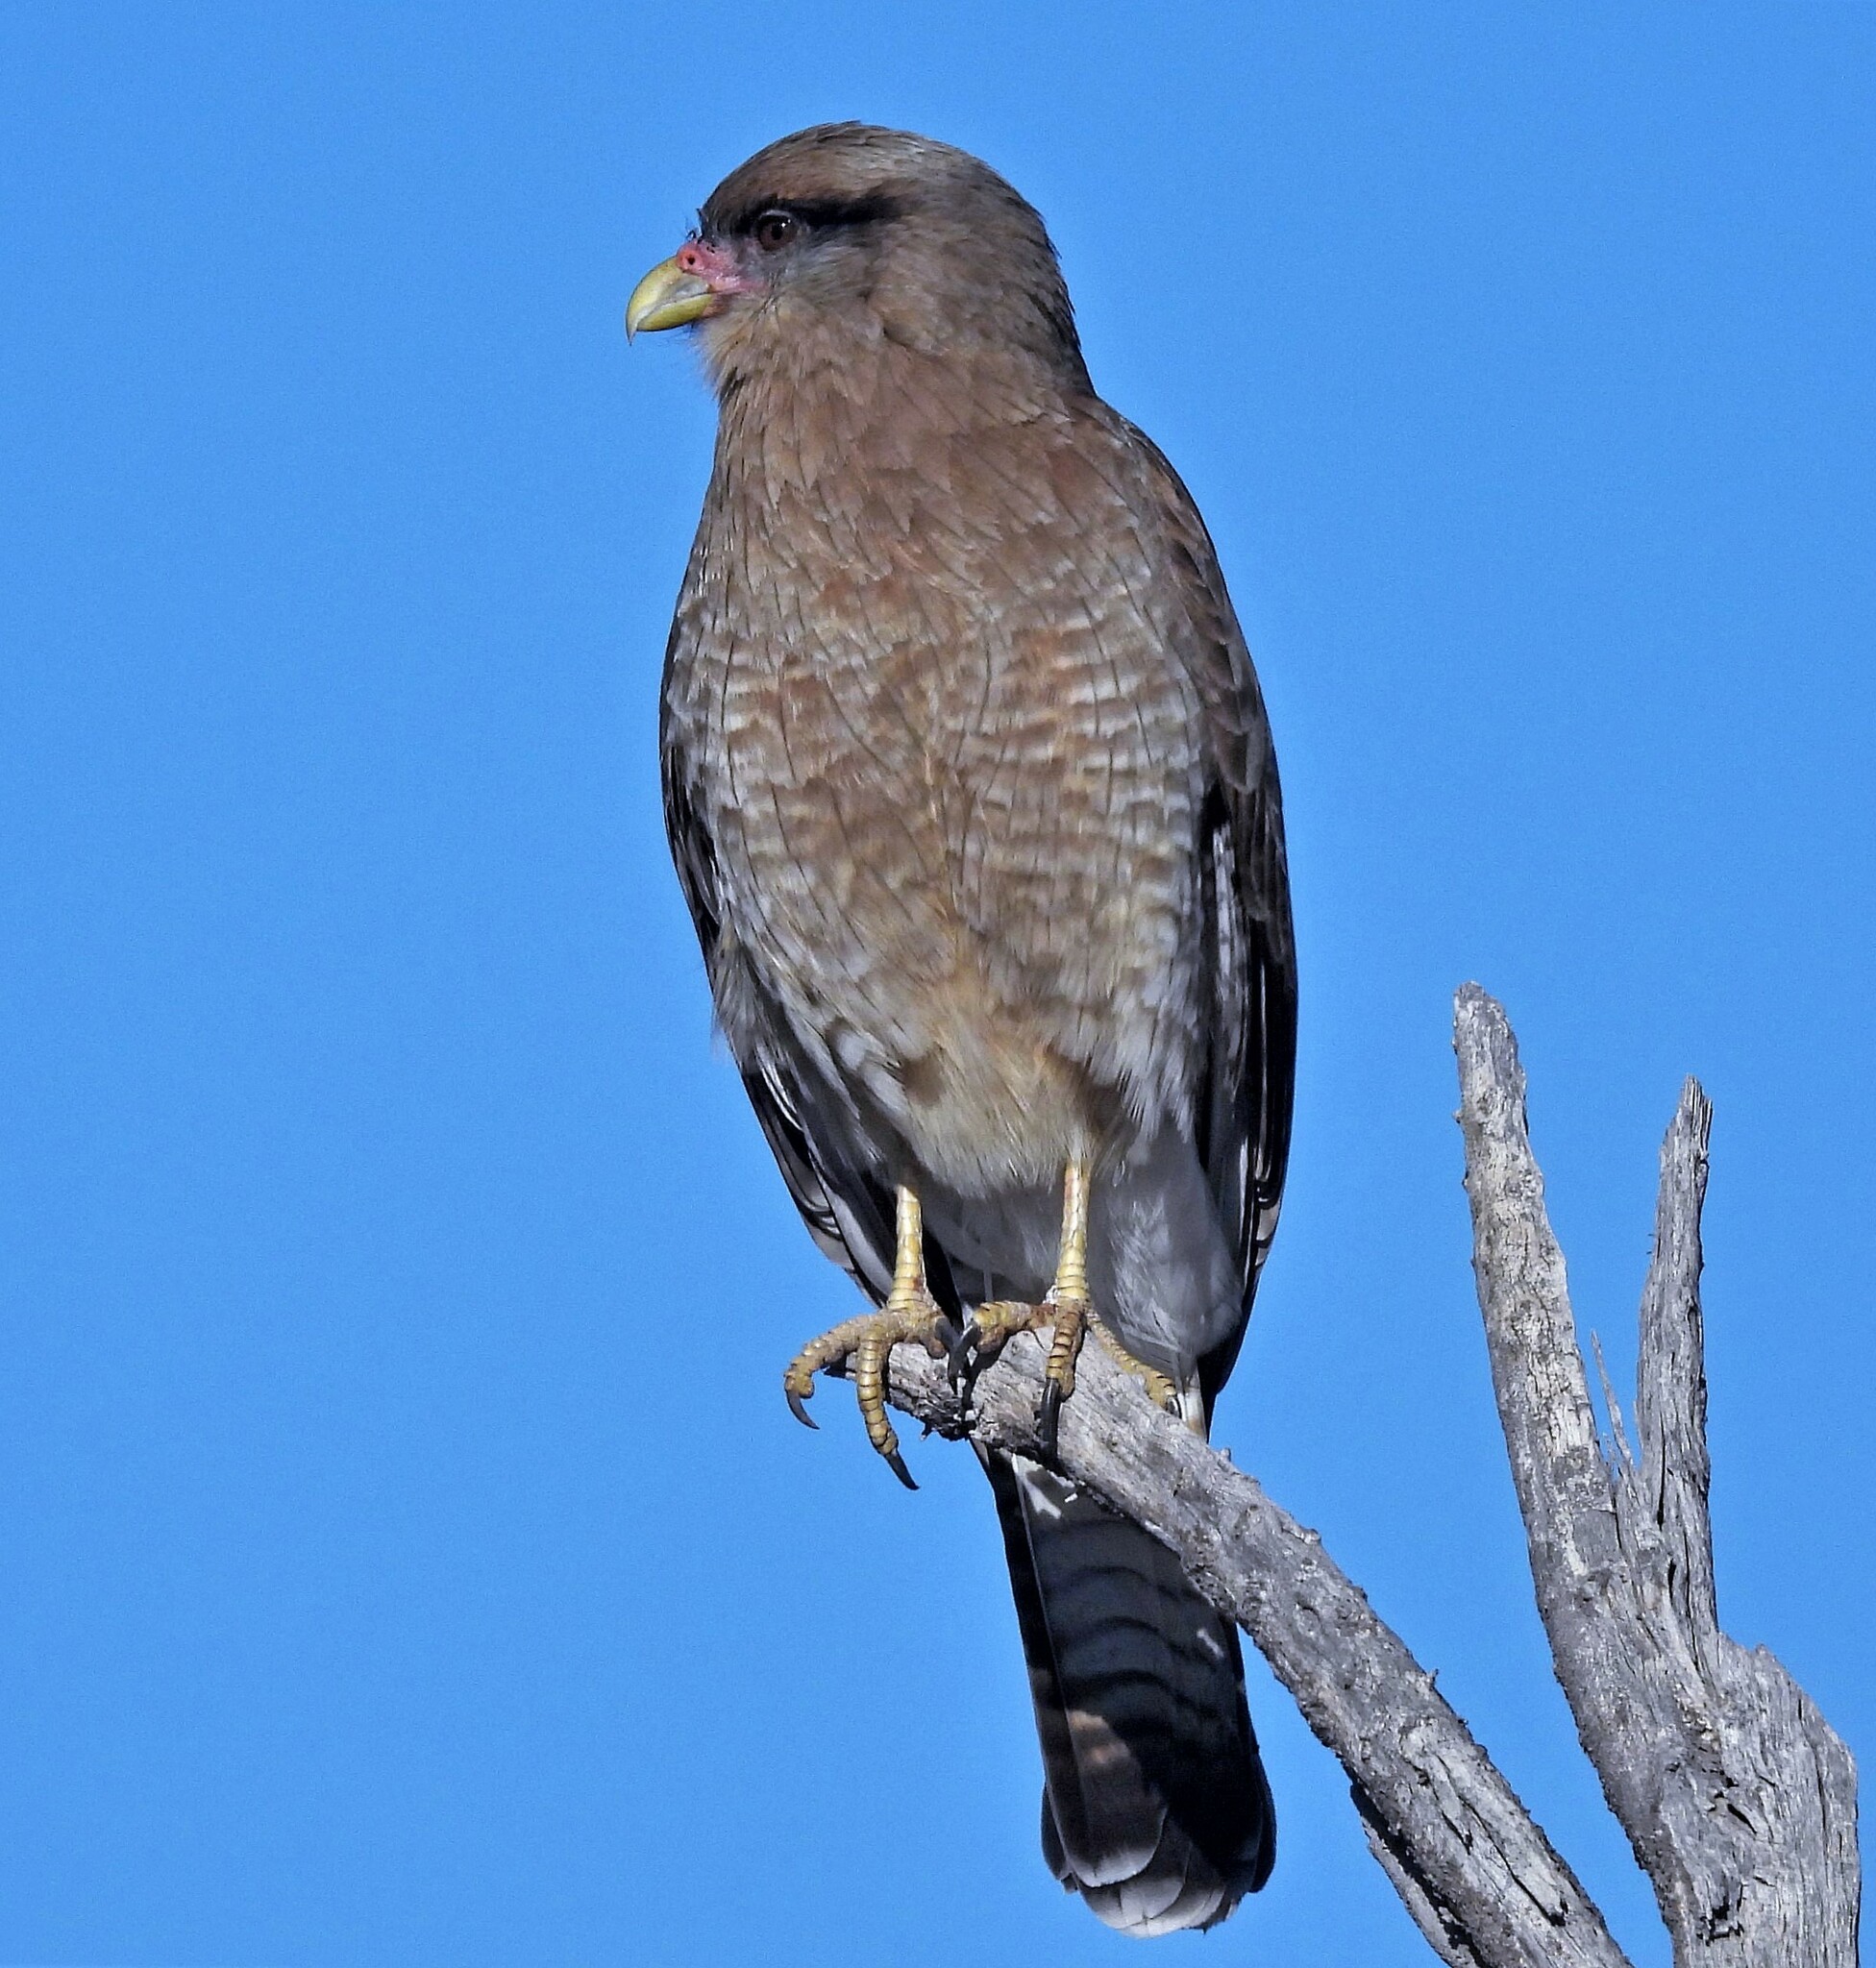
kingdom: Animalia
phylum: Chordata
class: Aves
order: Falconiformes
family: Falconidae
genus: Daptrius
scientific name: Daptrius
